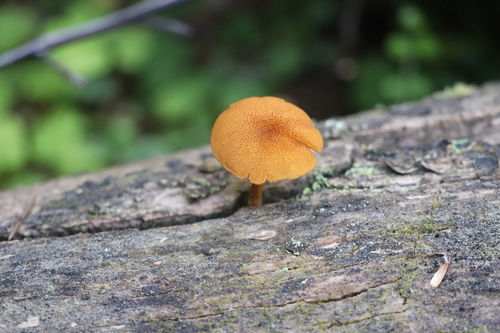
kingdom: Fungi
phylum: Basidiomycota
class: Agaricomycetes
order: Agaricales
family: Tubariaceae
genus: Flammulaster
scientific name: Flammulaster limulatus
